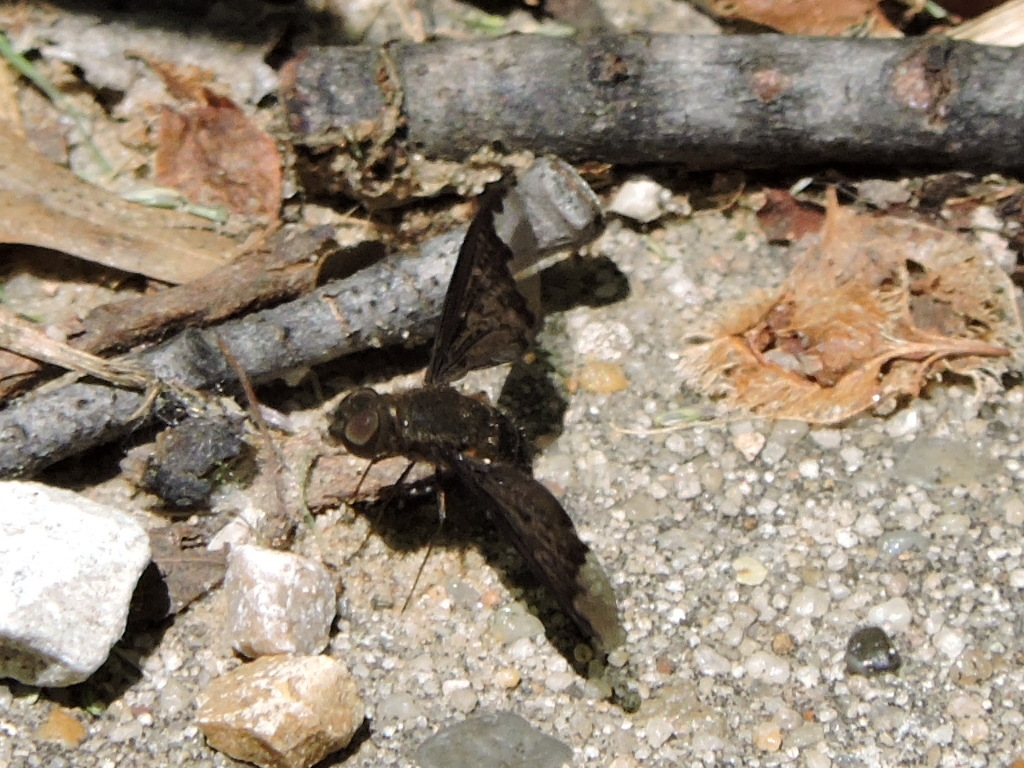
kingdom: Animalia
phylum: Arthropoda
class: Insecta
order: Diptera
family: Bombyliidae
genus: Hemipenthes
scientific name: Hemipenthes sinuosus
